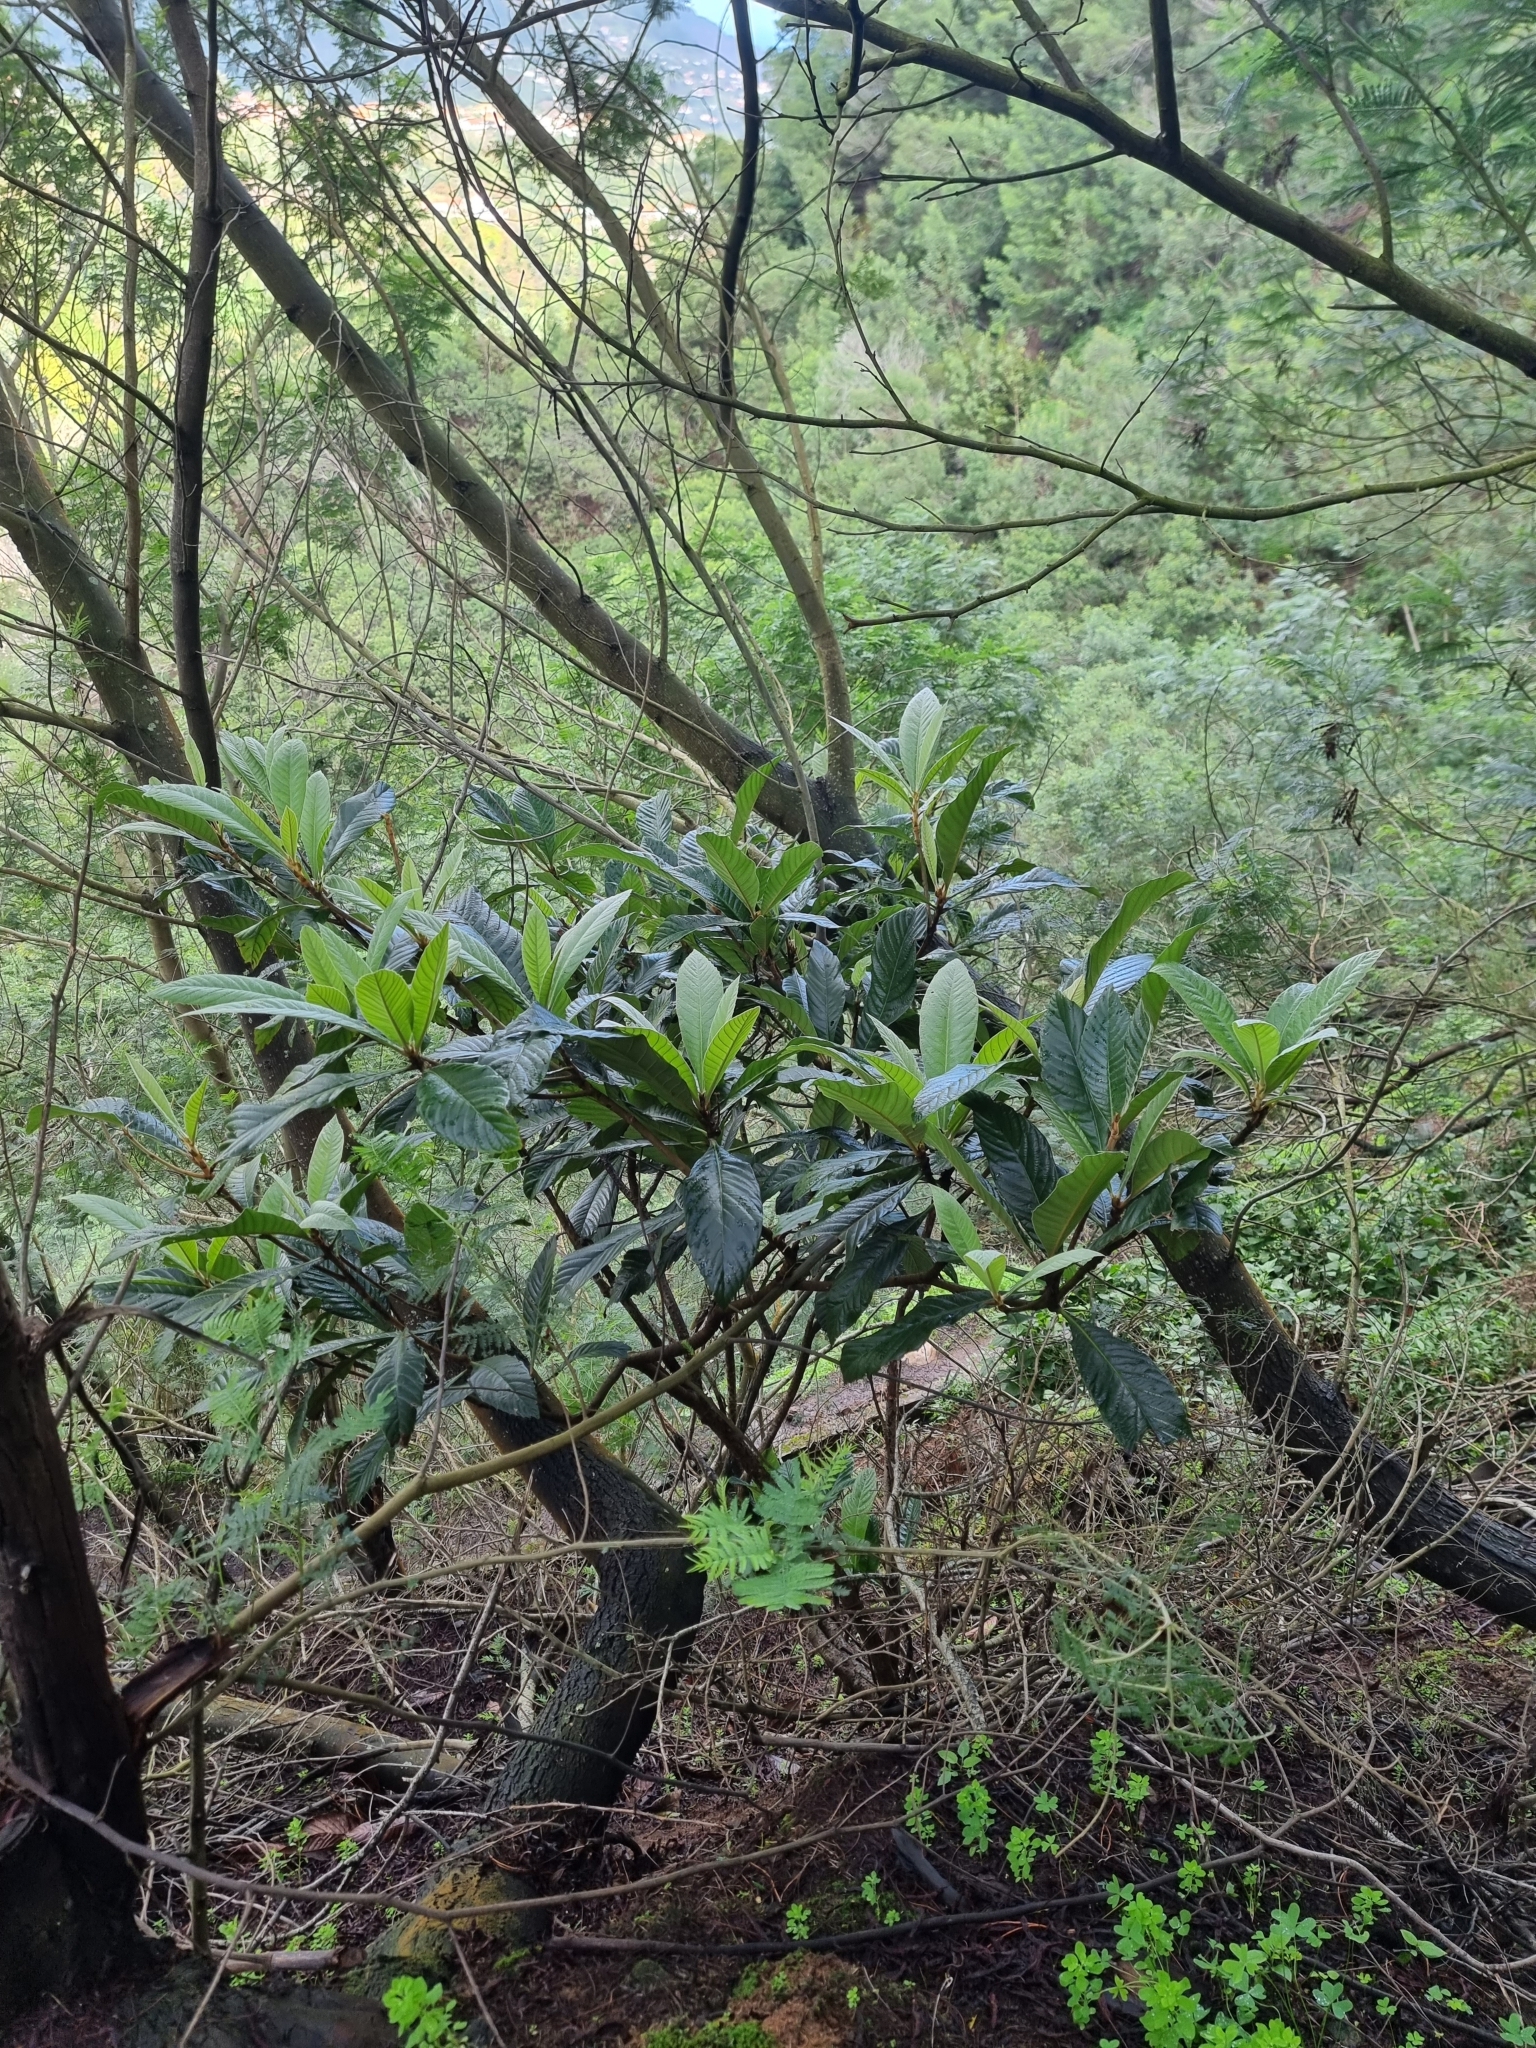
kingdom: Plantae
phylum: Tracheophyta
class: Magnoliopsida
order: Rosales
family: Rosaceae
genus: Rhaphiolepis
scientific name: Rhaphiolepis bibas
